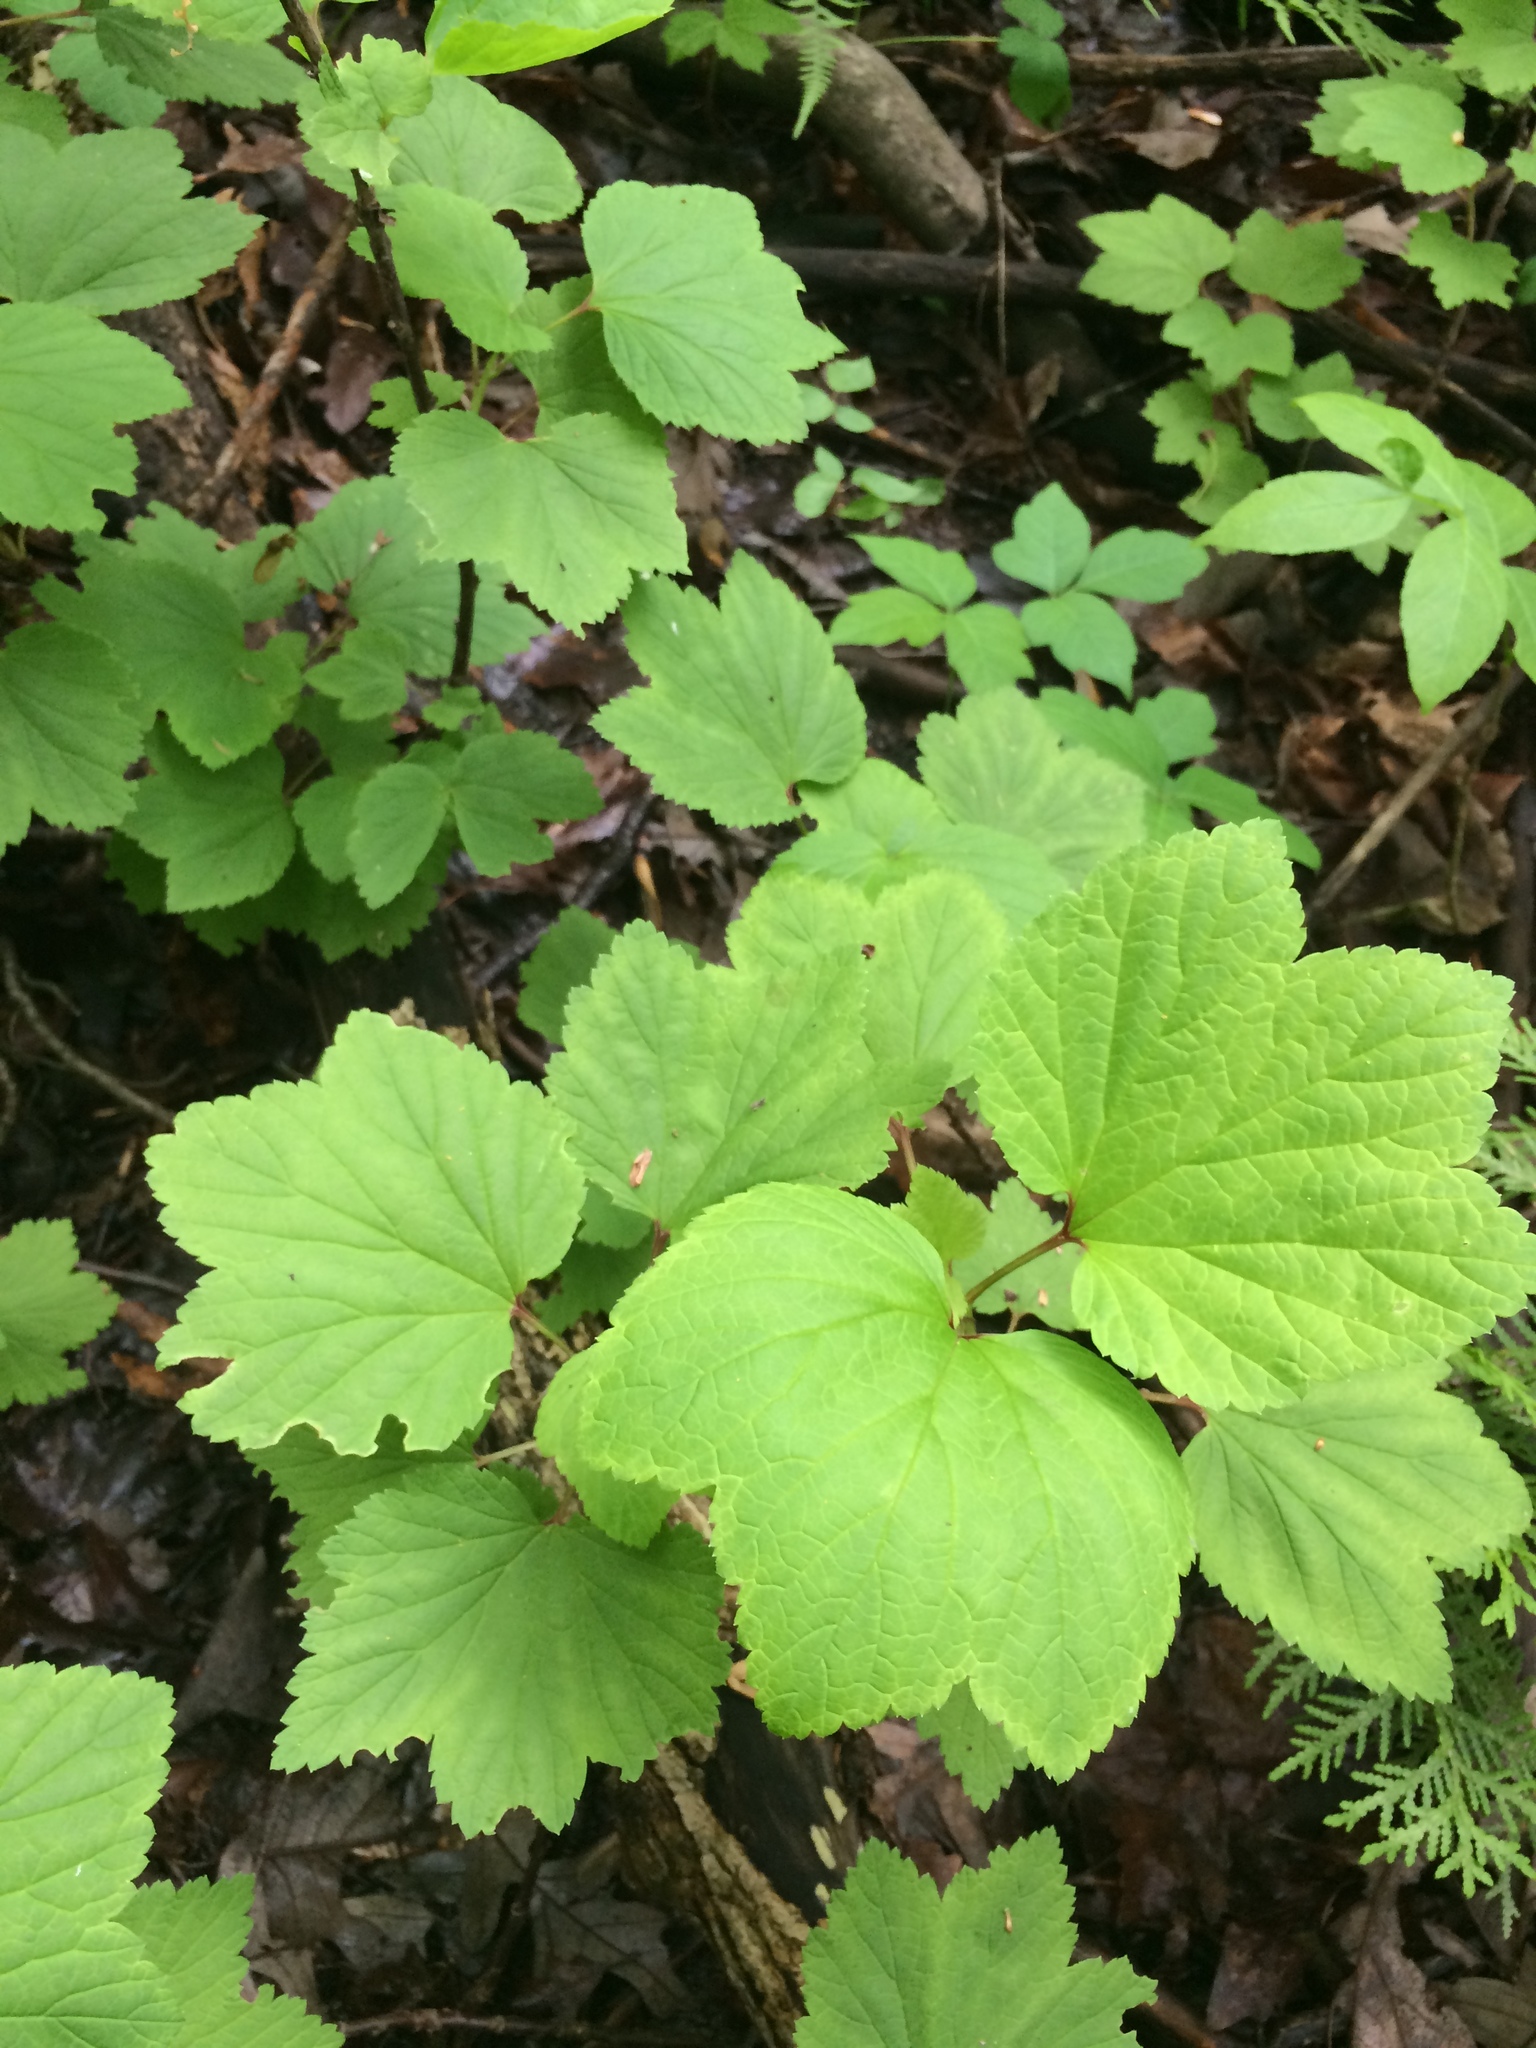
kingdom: Plantae
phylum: Tracheophyta
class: Magnoliopsida
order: Saxifragales
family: Grossulariaceae
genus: Ribes
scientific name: Ribes triste
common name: Swamp red currant
